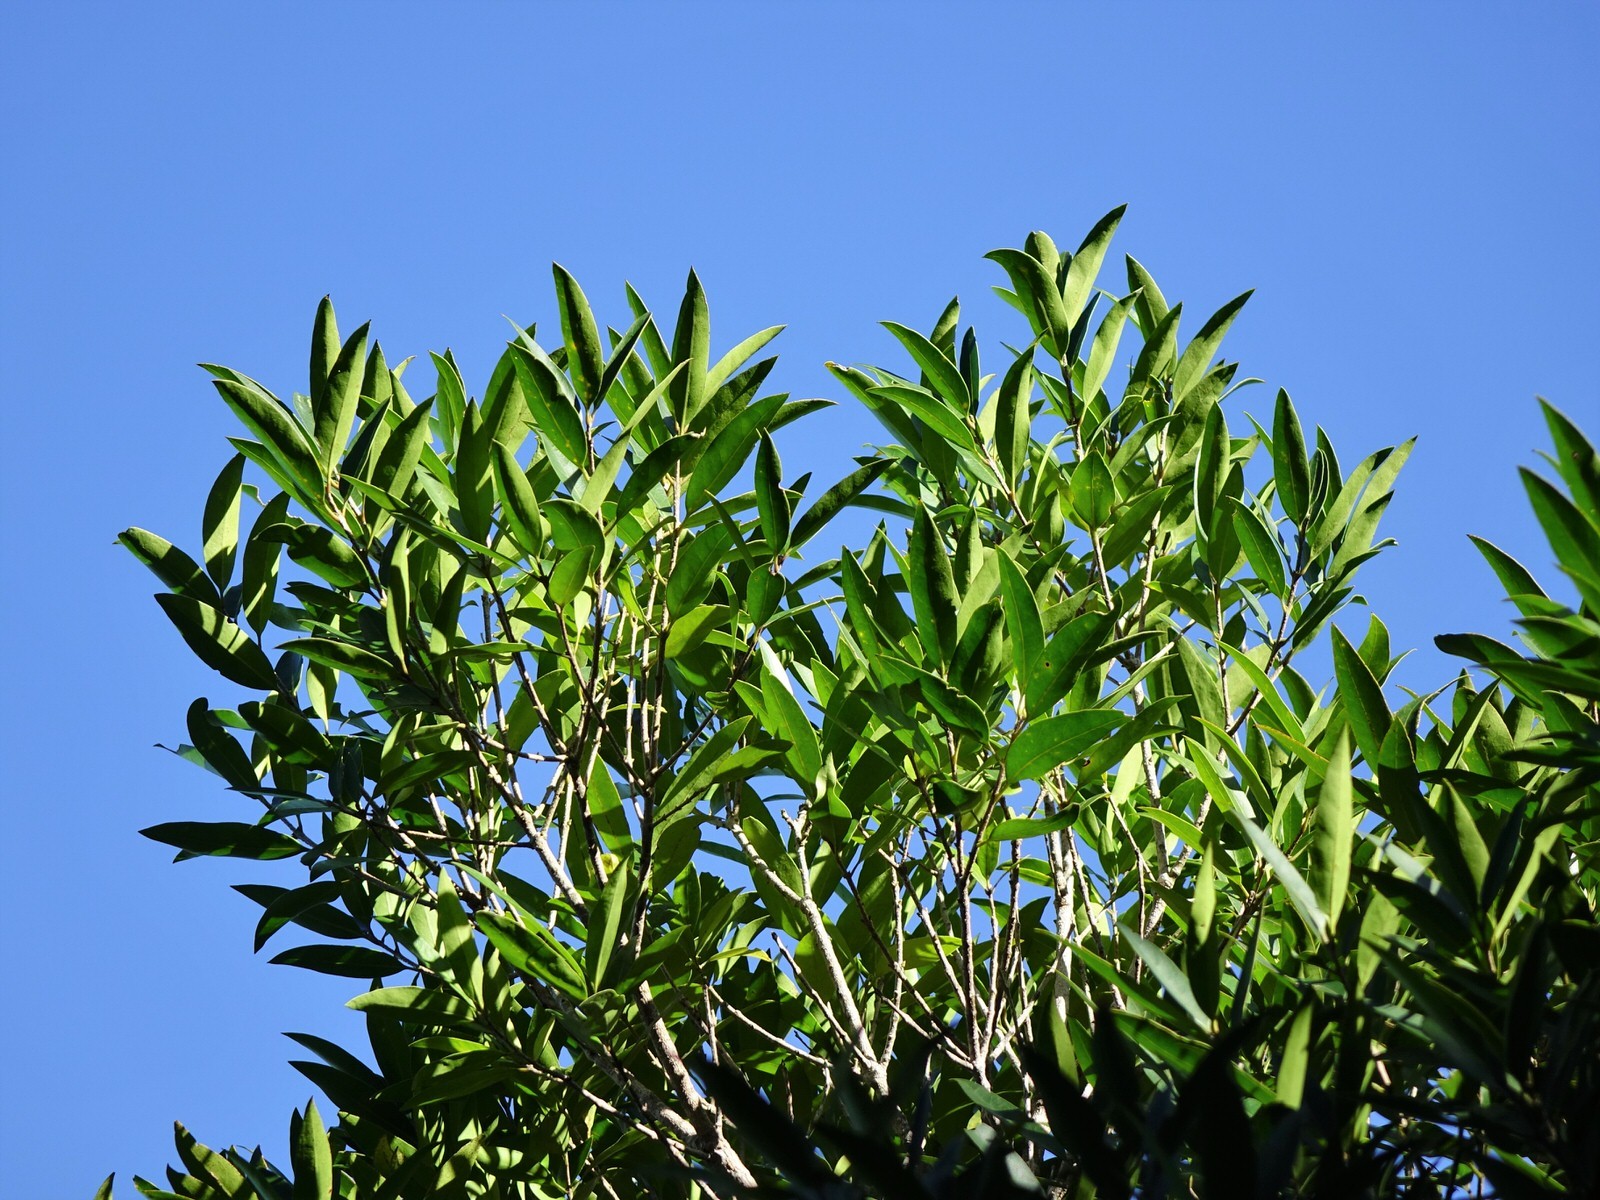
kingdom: Plantae
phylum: Tracheophyta
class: Magnoliopsida
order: Lamiales
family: Oleaceae
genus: Nestegis
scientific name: Nestegis lanceolata
